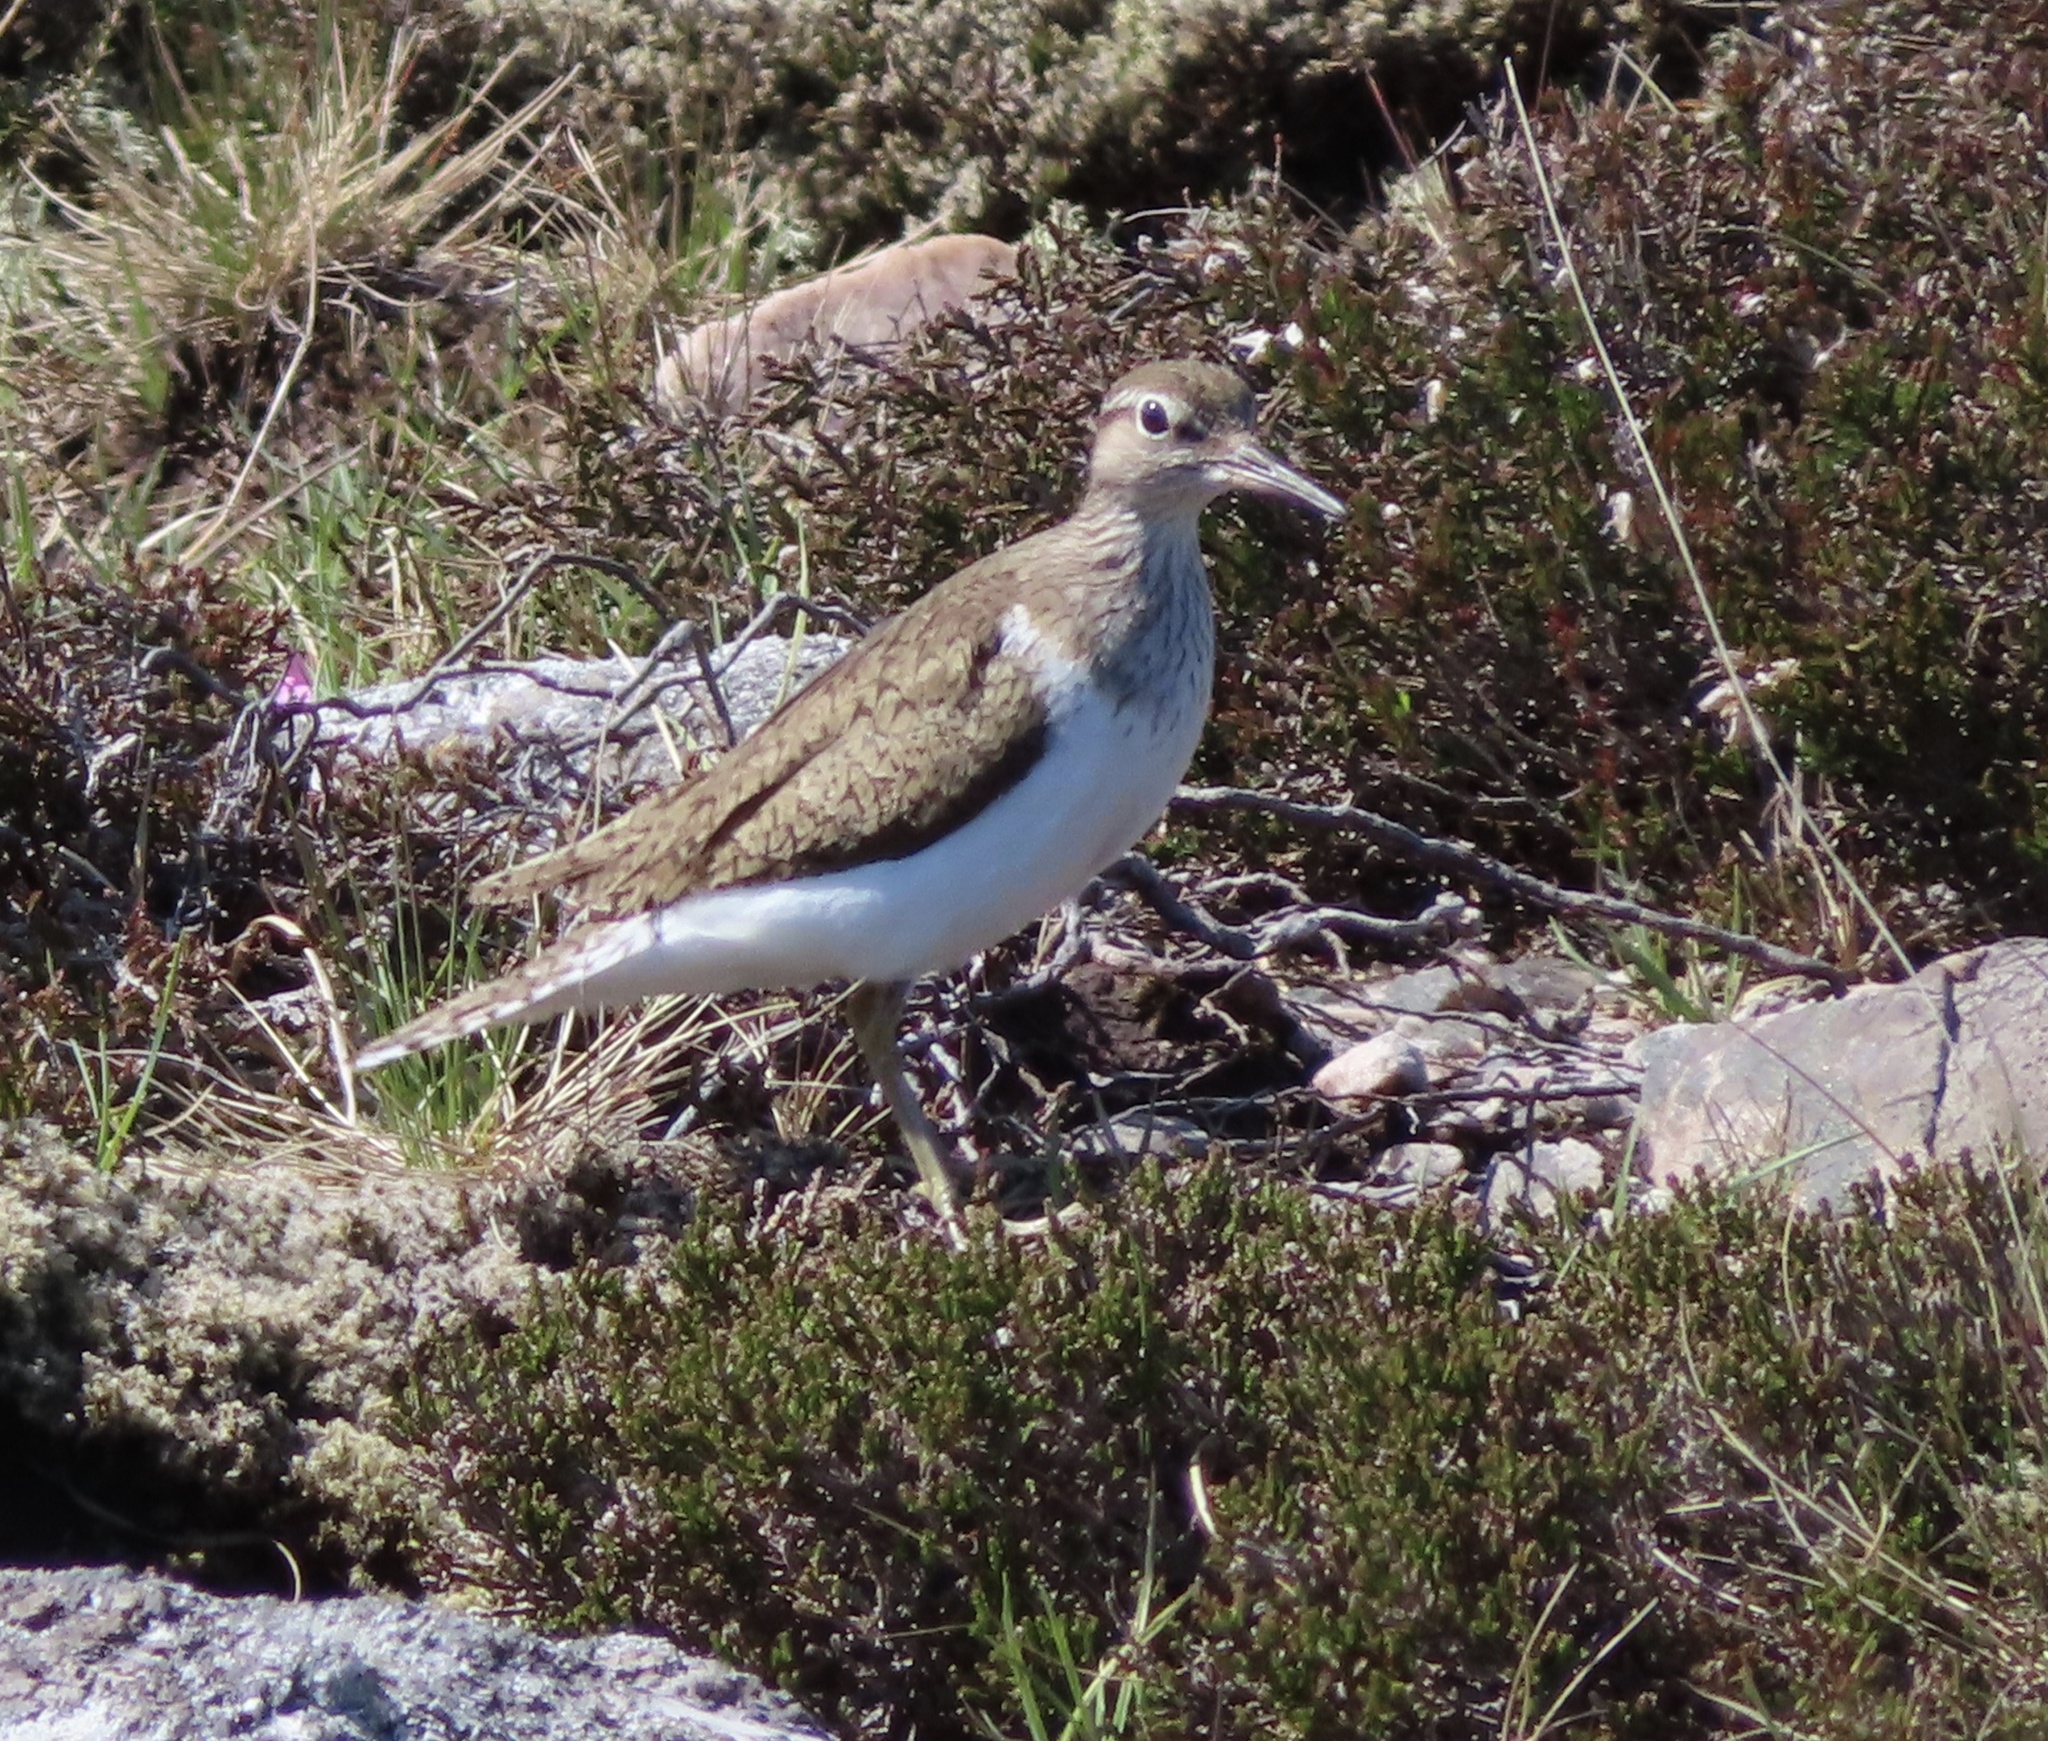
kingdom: Animalia
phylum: Chordata
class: Aves
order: Charadriiformes
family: Scolopacidae
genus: Actitis
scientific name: Actitis hypoleucos
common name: Common sandpiper
